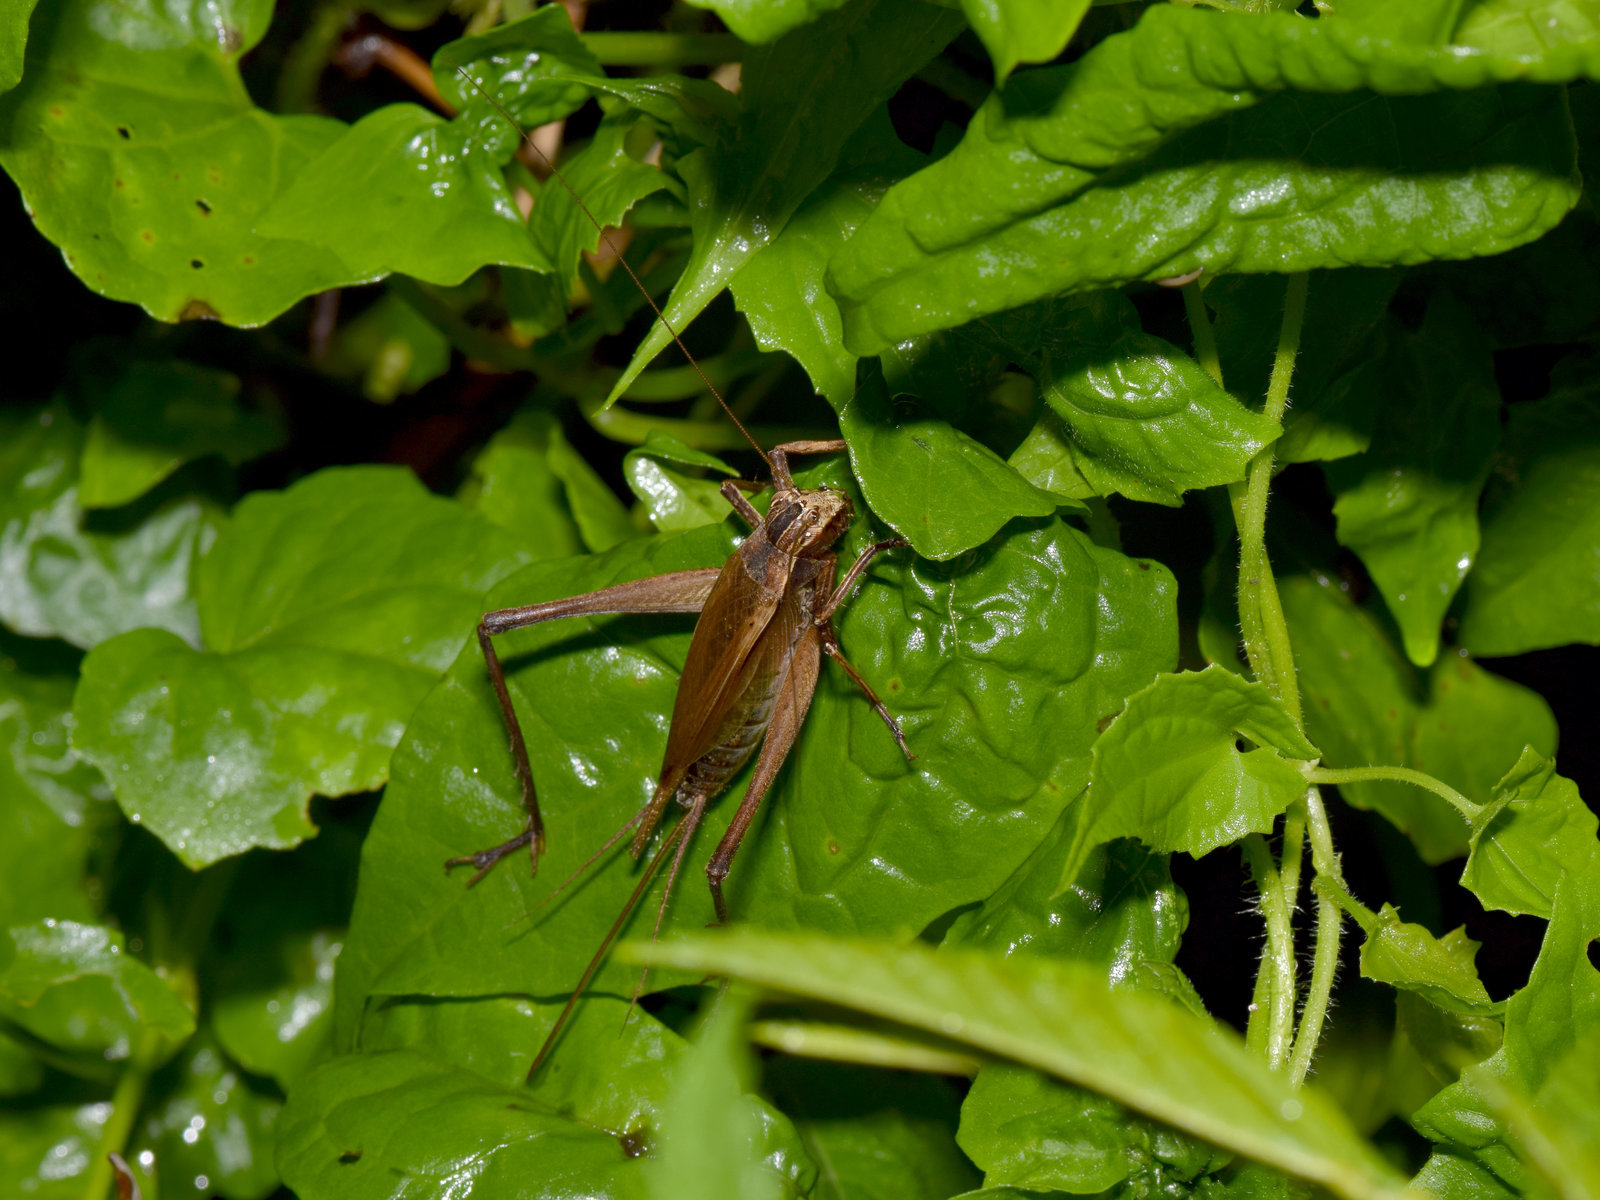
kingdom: Animalia
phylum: Arthropoda
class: Insecta
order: Orthoptera
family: Gryllidae
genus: Xenogryllus
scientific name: Xenogryllus transversus
